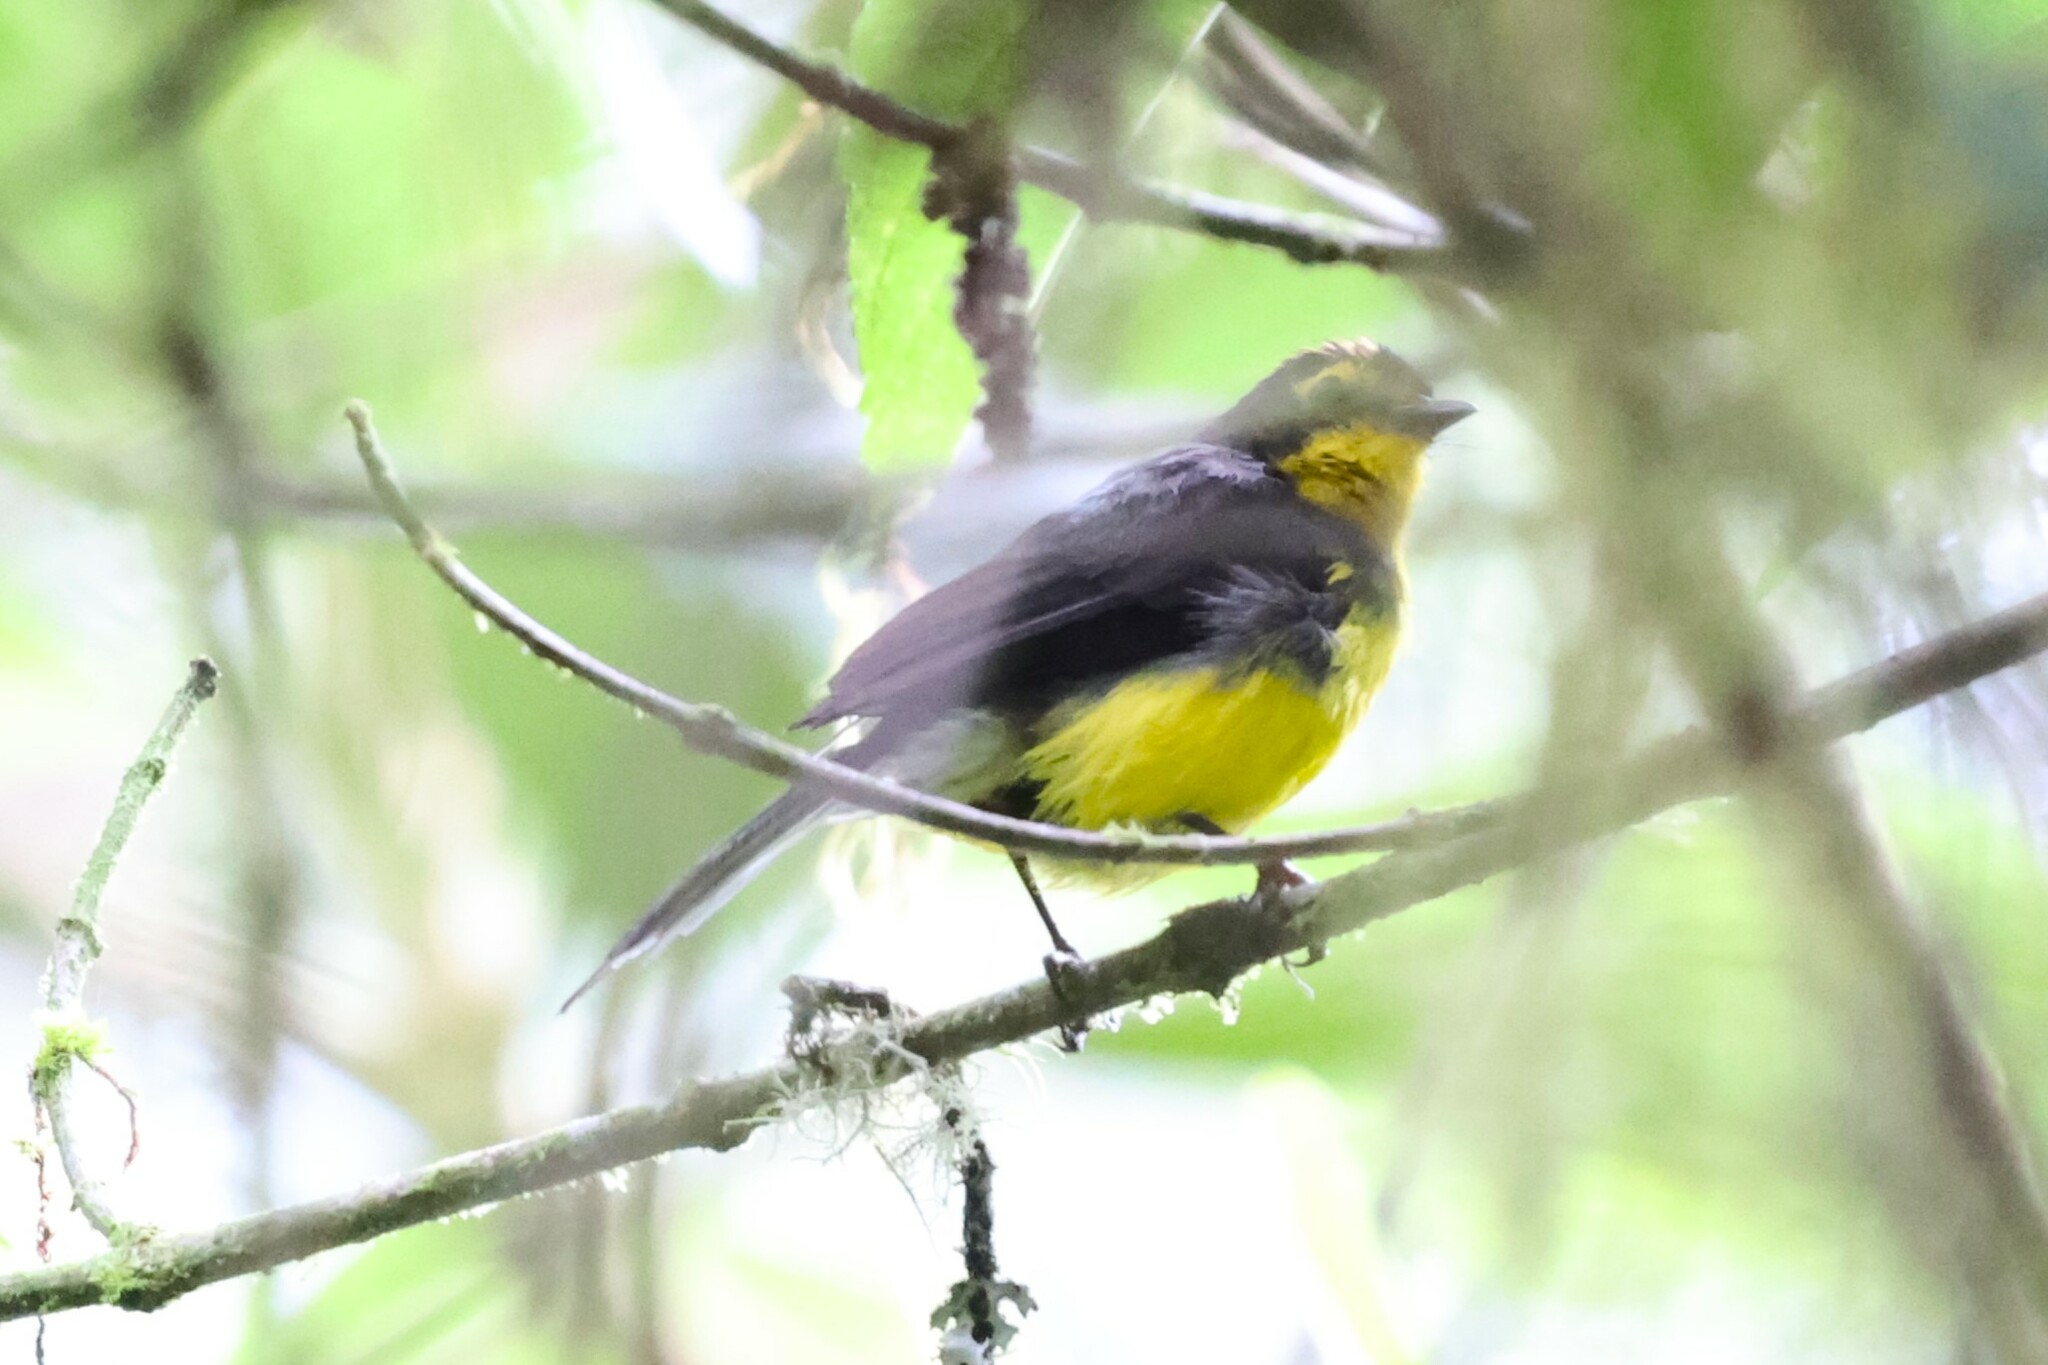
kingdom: Animalia
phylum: Chordata
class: Aves
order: Passeriformes
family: Parulidae
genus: Myioborus
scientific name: Myioborus melanocephalus
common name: Spectacled whitestart
